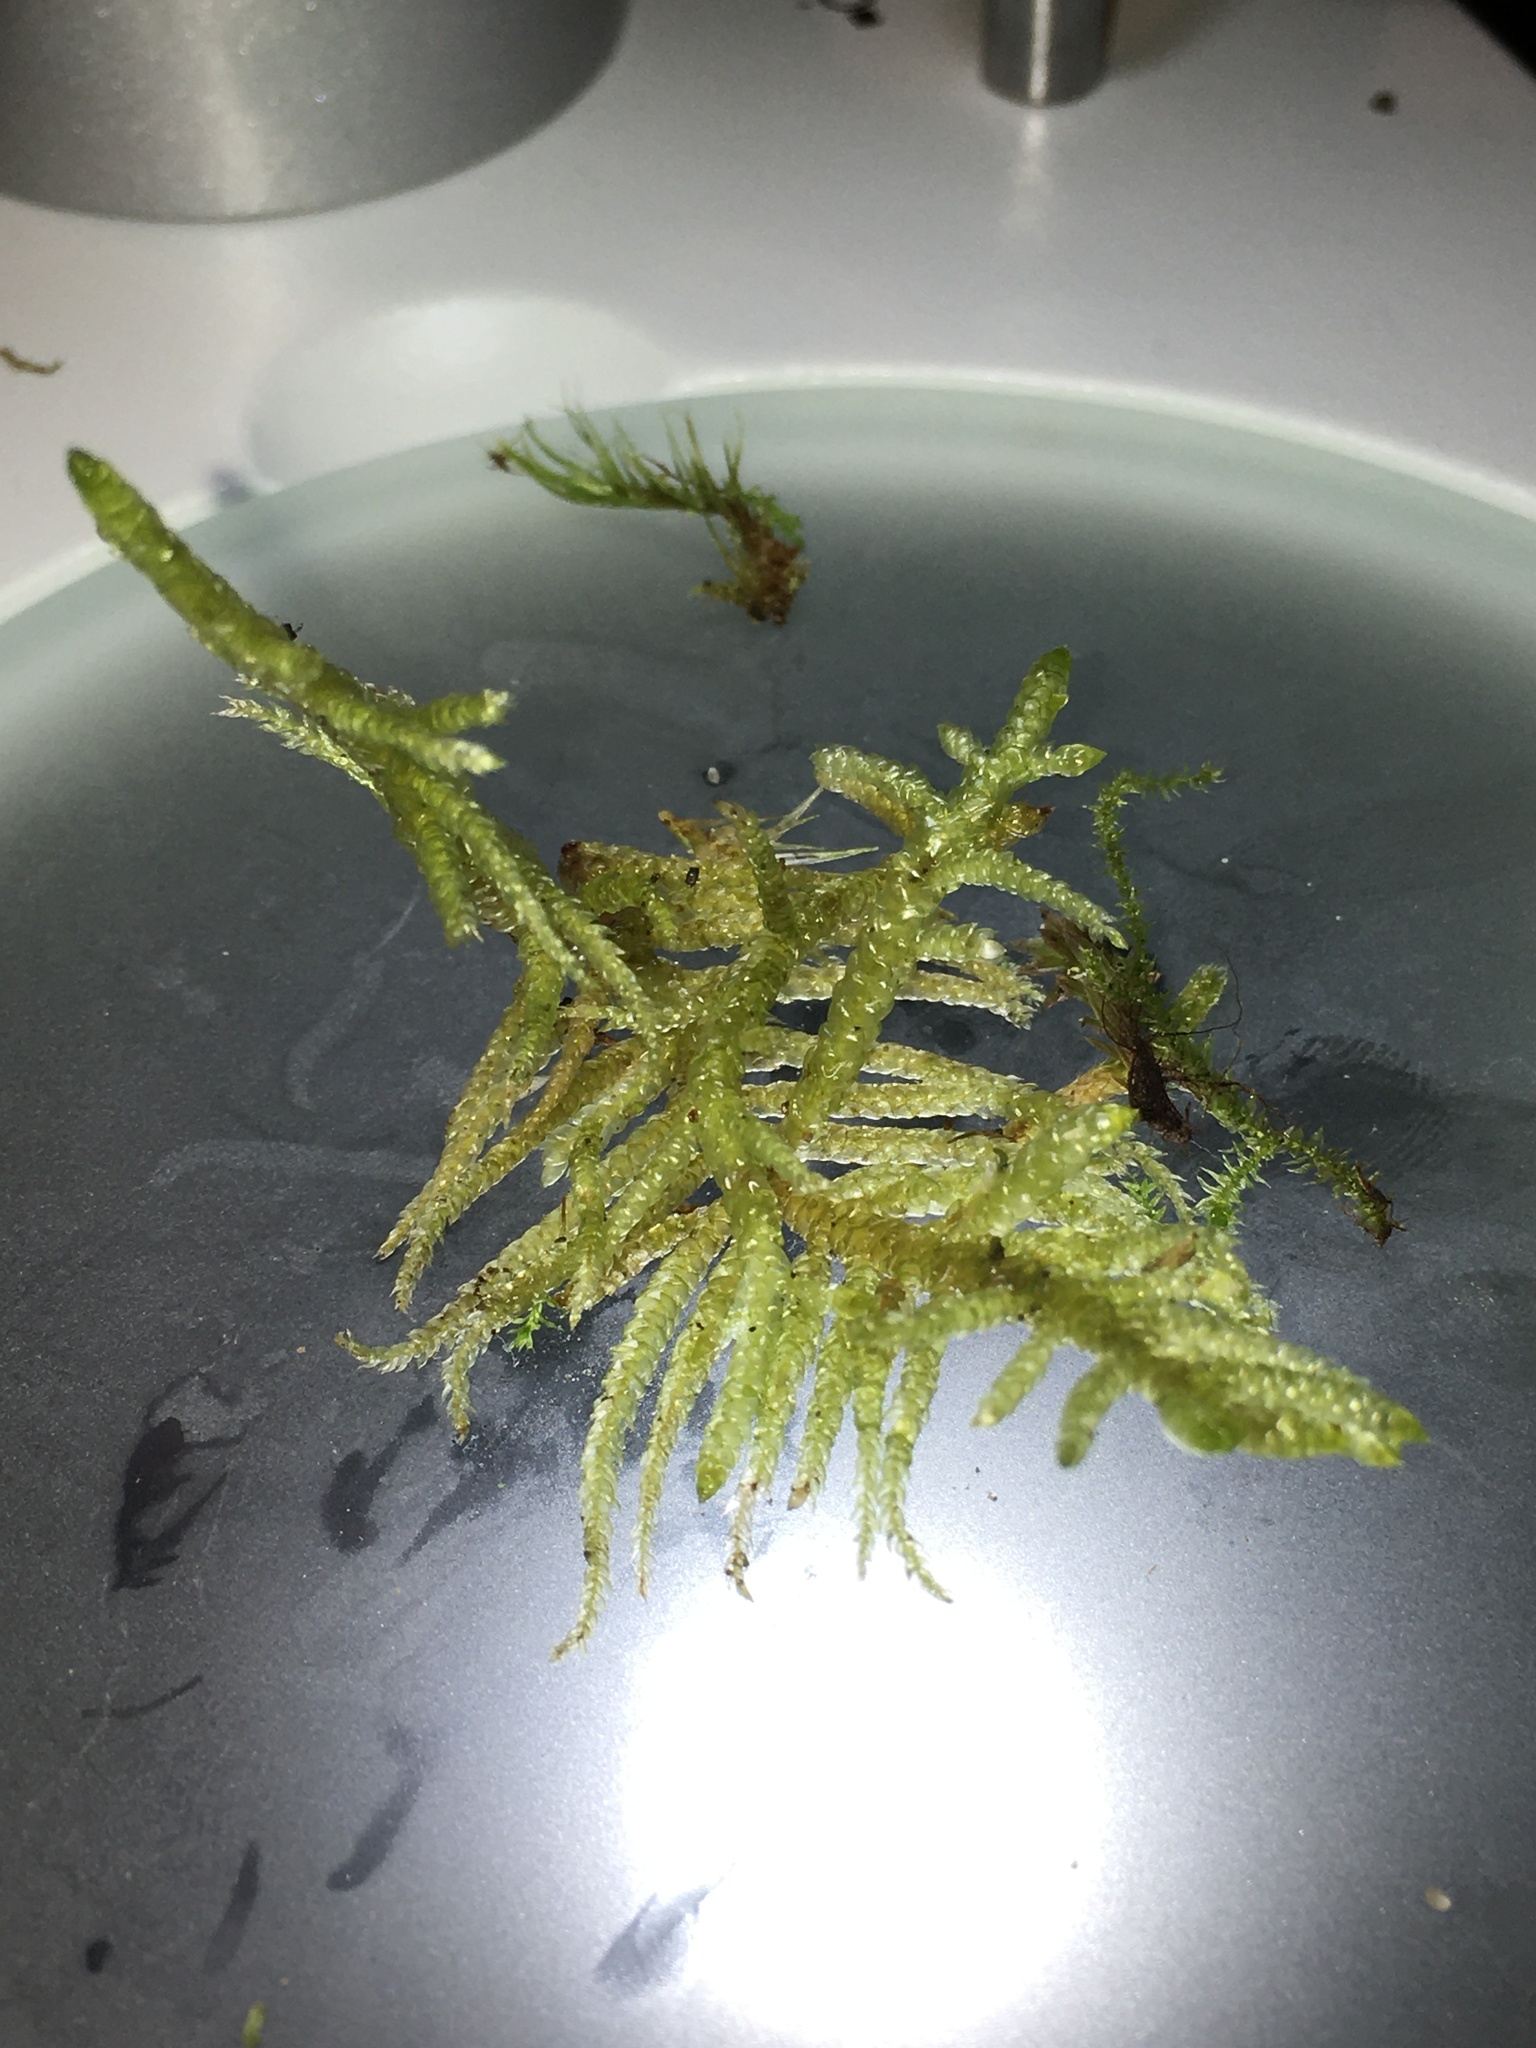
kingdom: Plantae
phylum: Bryophyta
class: Bryopsida
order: Hypnales
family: Brachytheciaceae
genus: Pseudoscleropodium
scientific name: Pseudoscleropodium purum
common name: Neat feather-moss
